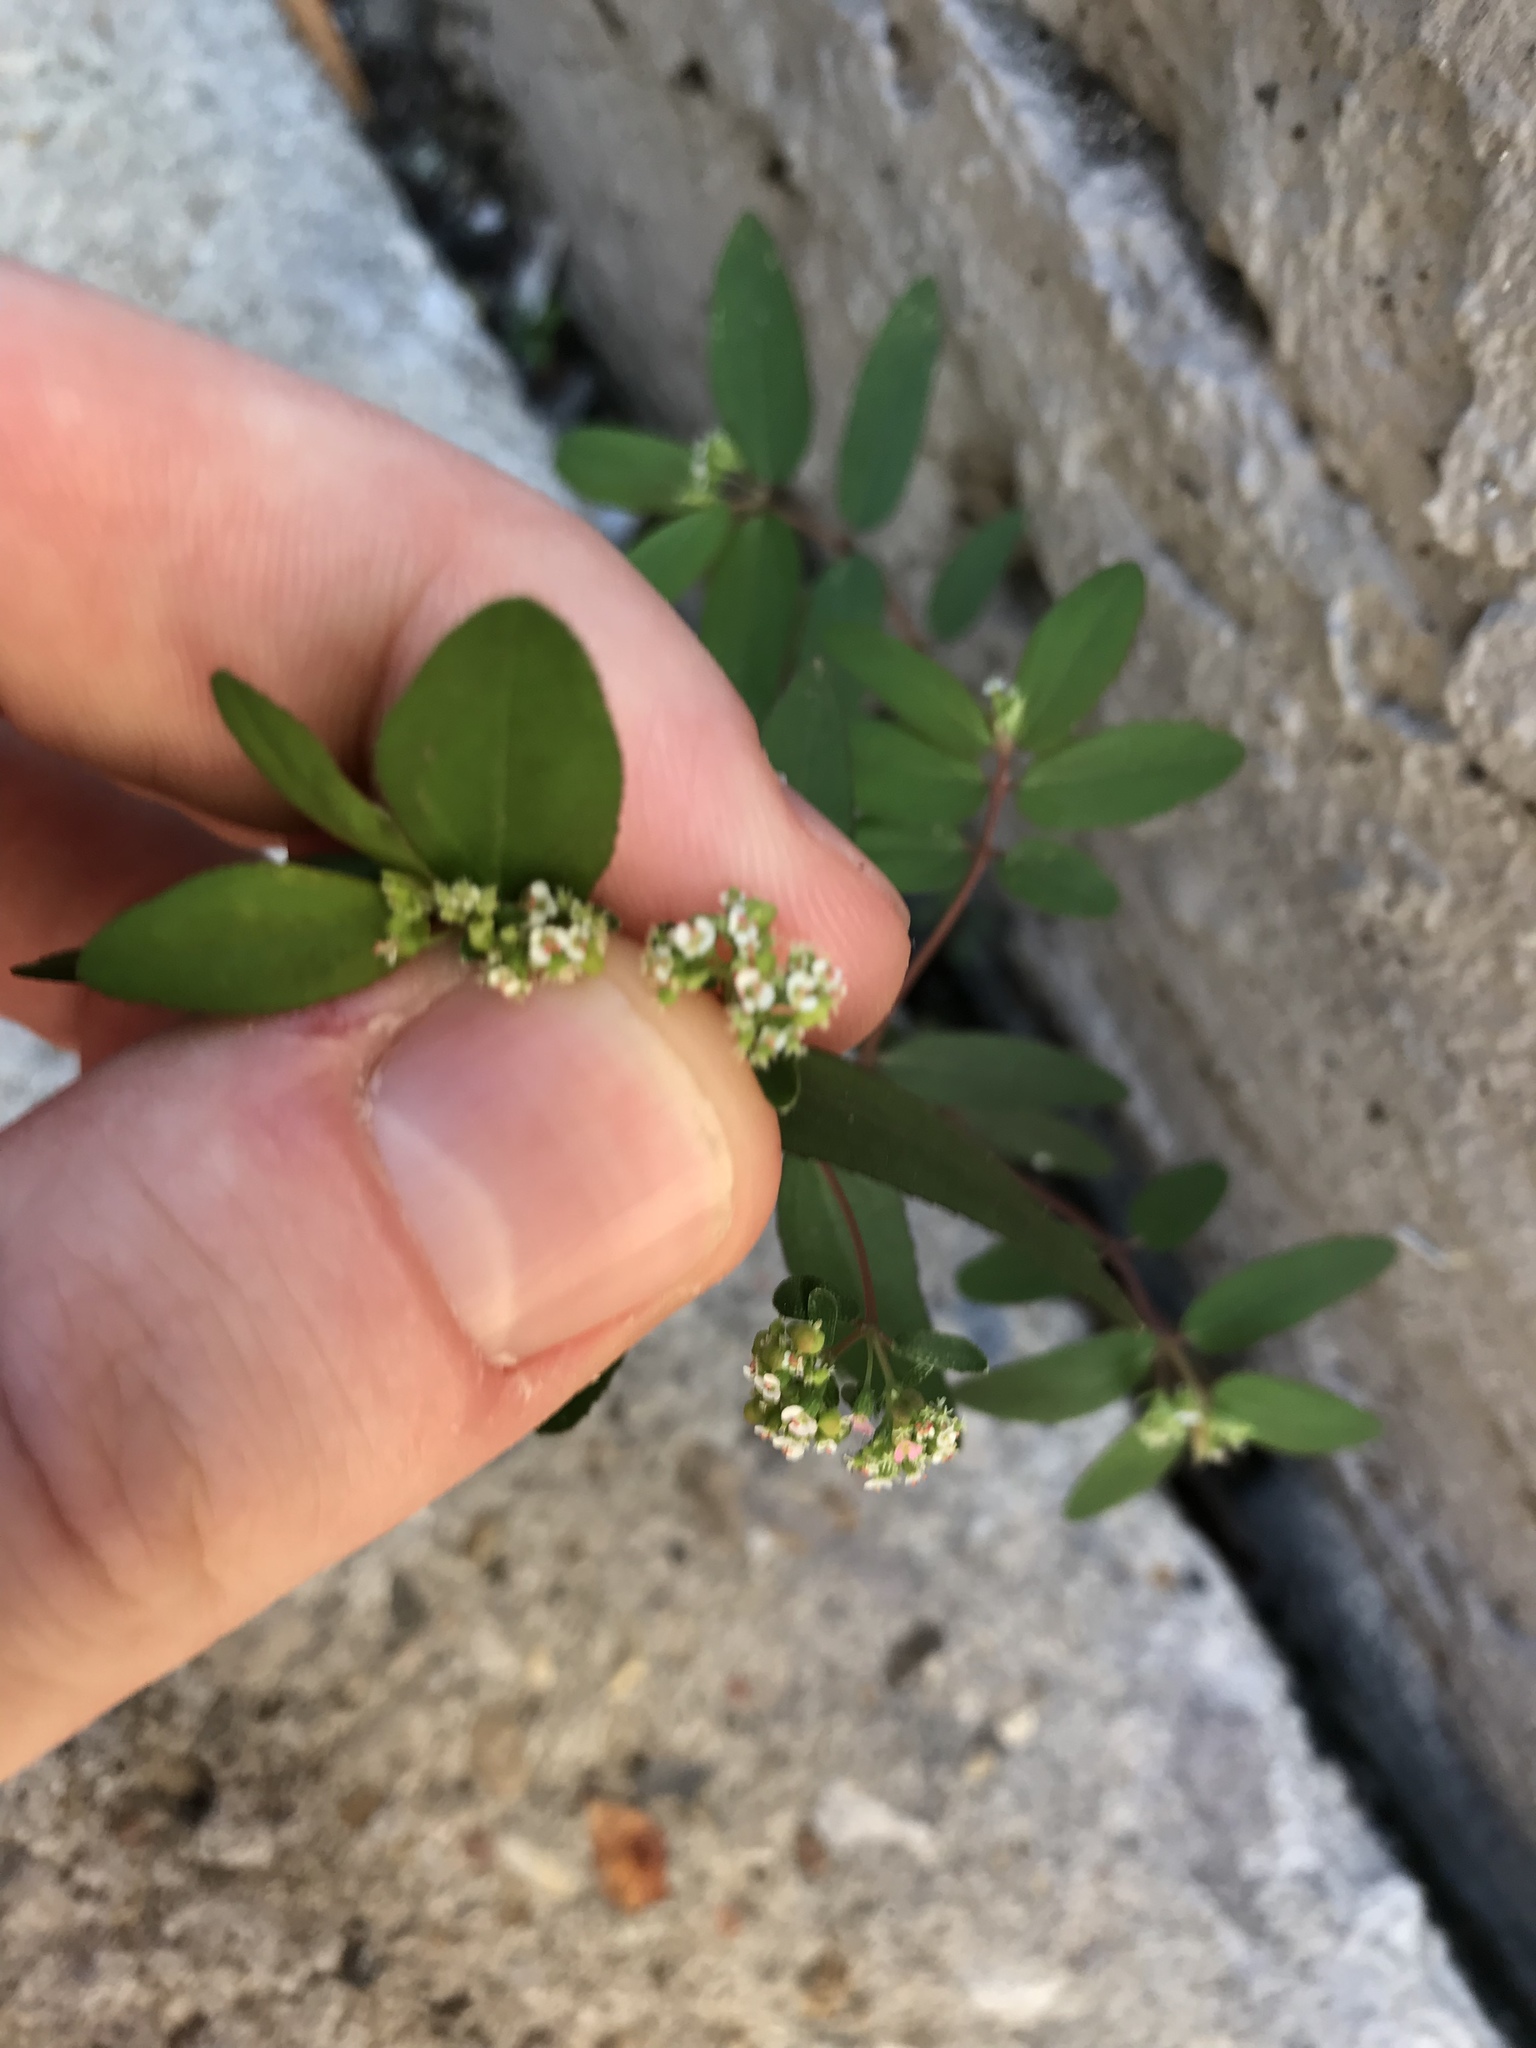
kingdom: Plantae
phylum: Tracheophyta
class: Magnoliopsida
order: Malpighiales
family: Euphorbiaceae
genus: Euphorbia
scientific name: Euphorbia hypericifolia
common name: Graceful sandmat
